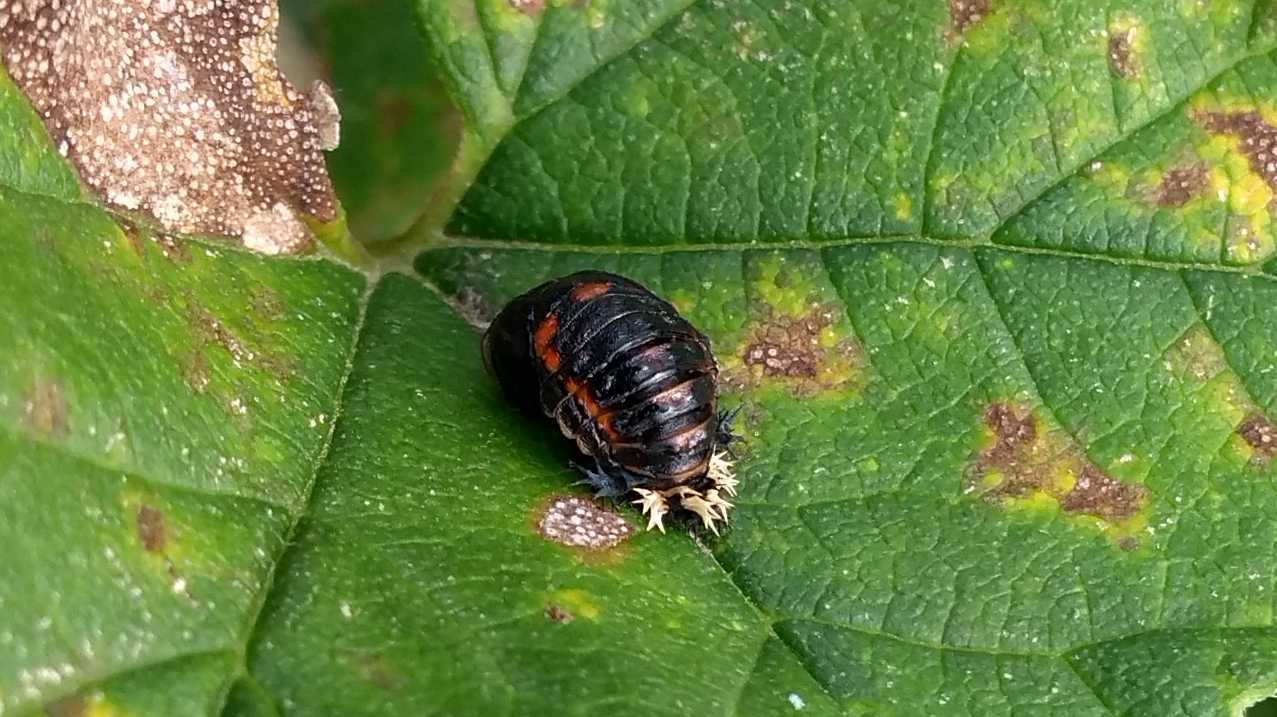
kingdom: Animalia
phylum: Arthropoda
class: Insecta
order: Coleoptera
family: Coccinellidae
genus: Harmonia
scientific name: Harmonia axyridis
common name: Harlequin ladybird
